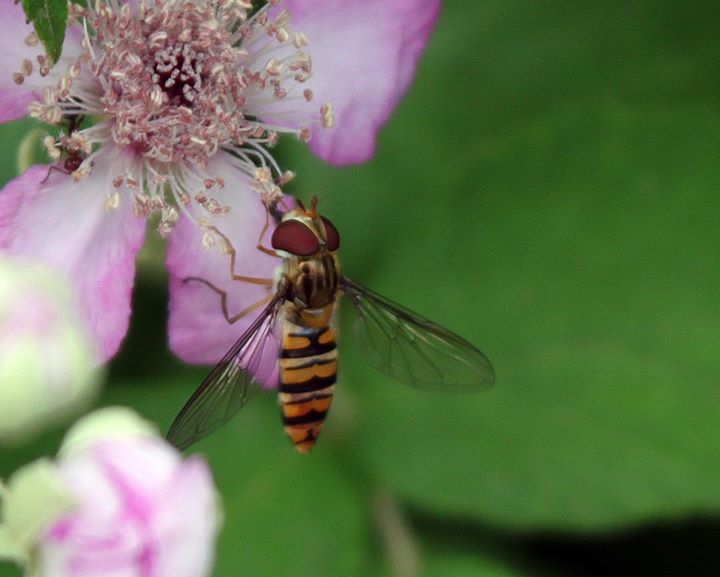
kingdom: Animalia
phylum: Arthropoda
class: Insecta
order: Diptera
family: Syrphidae
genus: Episyrphus
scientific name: Episyrphus balteatus
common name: Marmalade hoverfly
